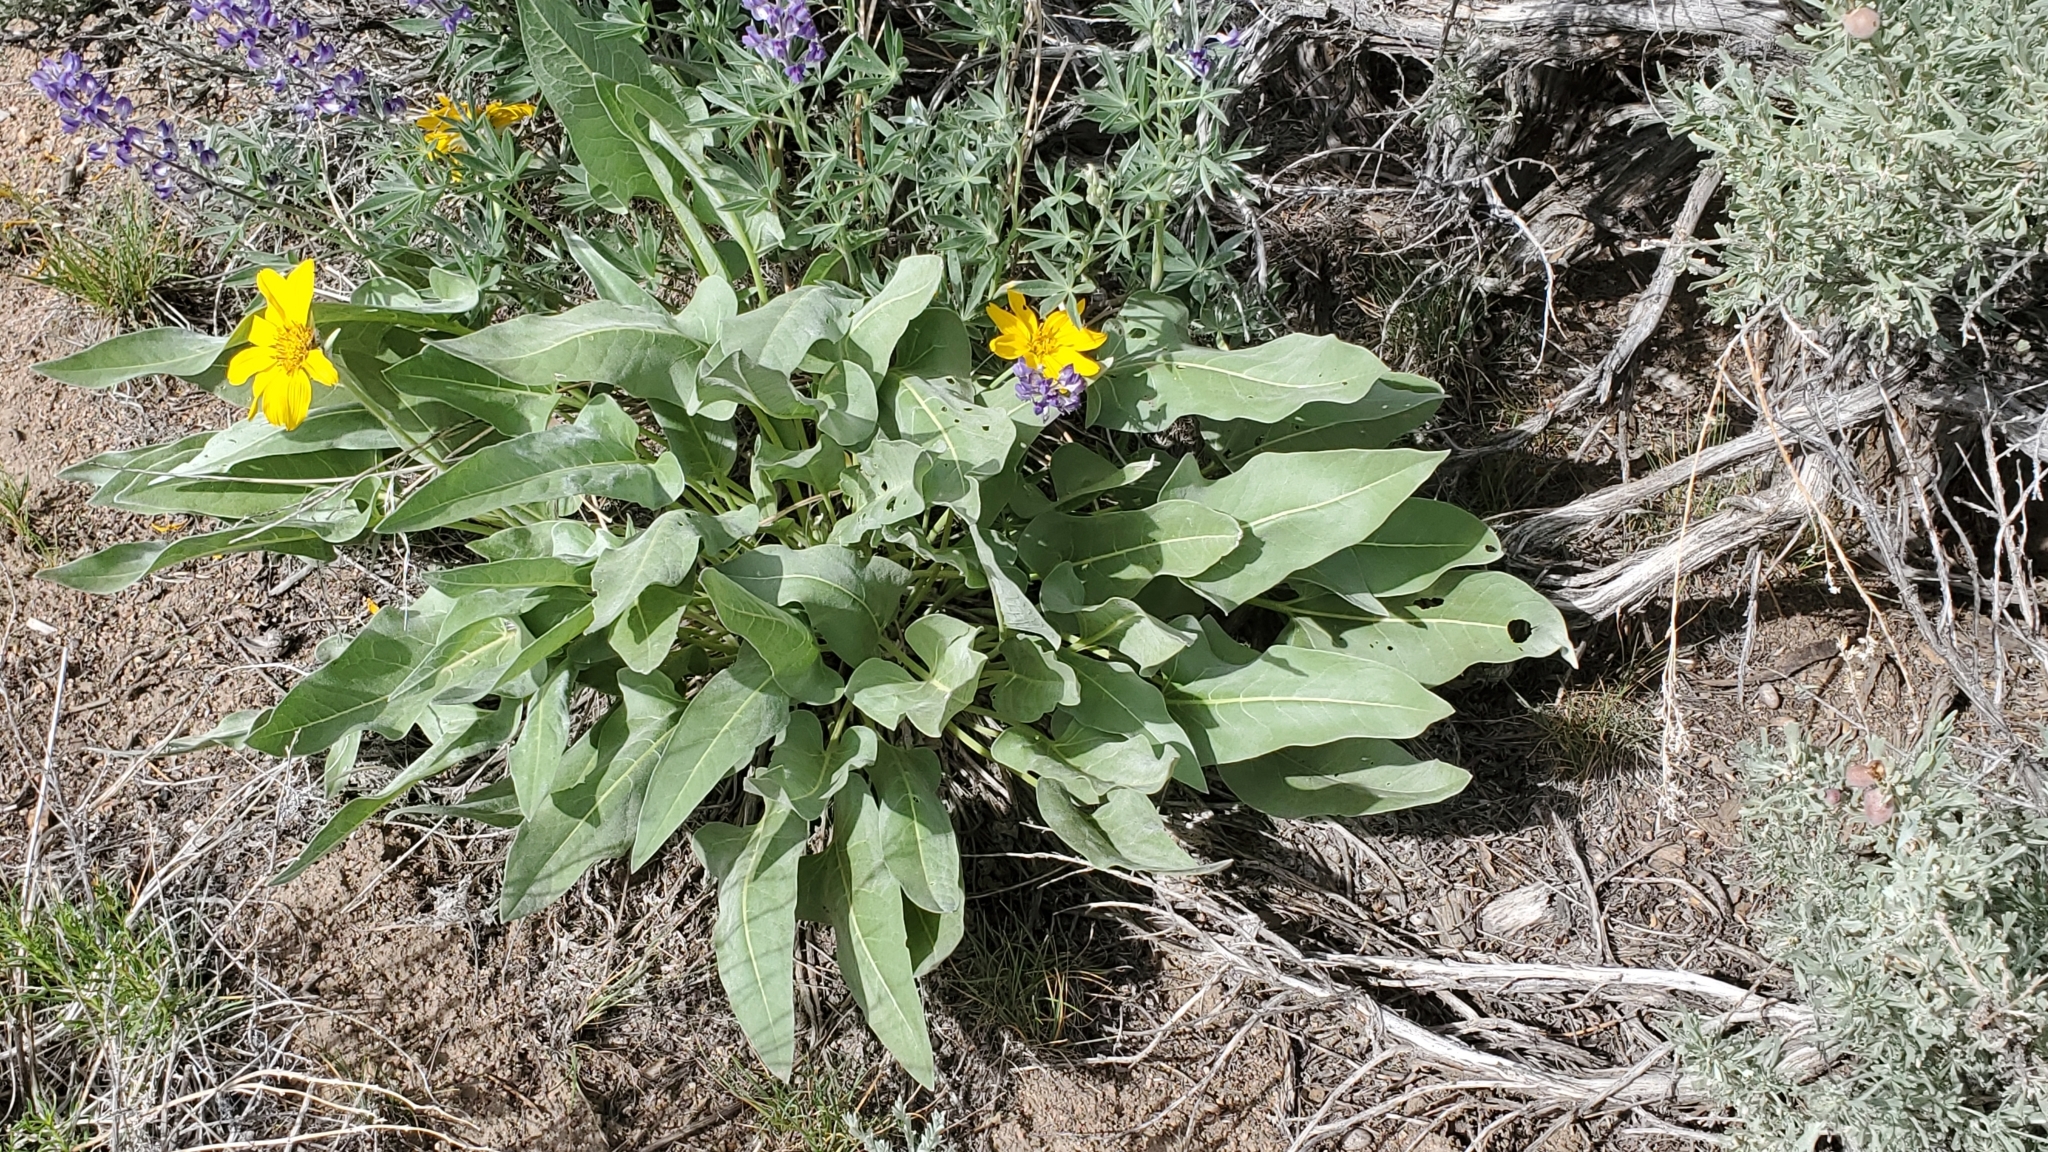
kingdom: Plantae
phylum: Tracheophyta
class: Magnoliopsida
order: Asterales
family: Asteraceae
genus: Wyethia
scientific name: Wyethia sagittata
